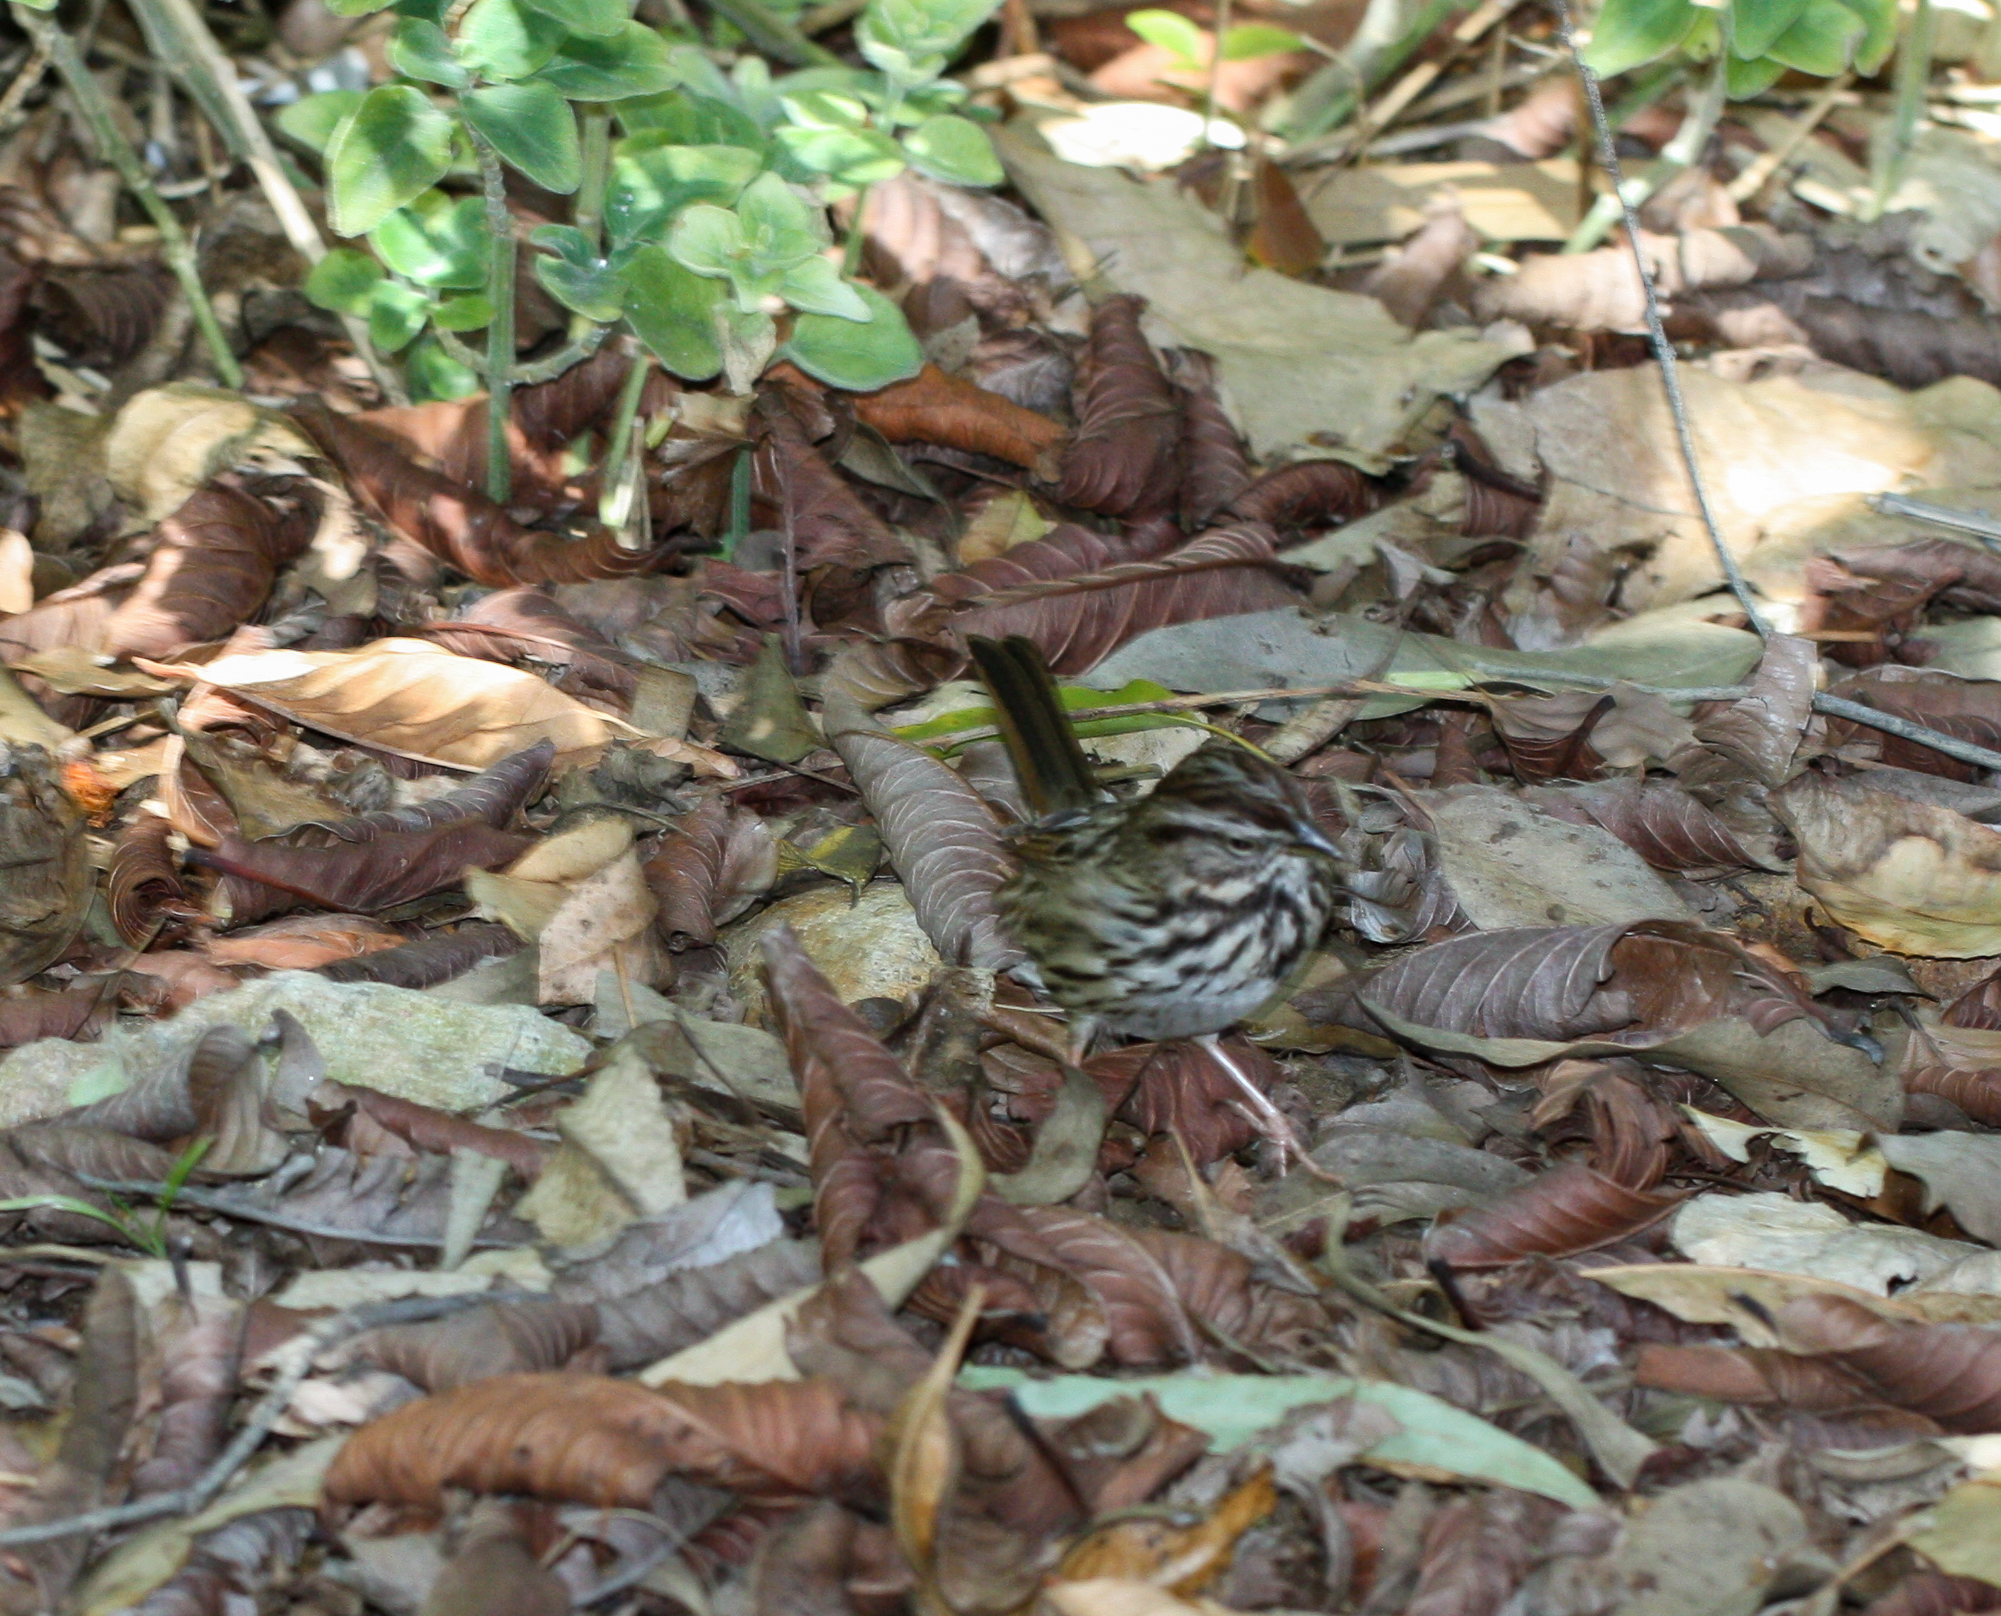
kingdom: Animalia
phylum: Chordata
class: Aves
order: Passeriformes
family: Passerellidae
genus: Melospiza
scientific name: Melospiza melodia
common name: Song sparrow
